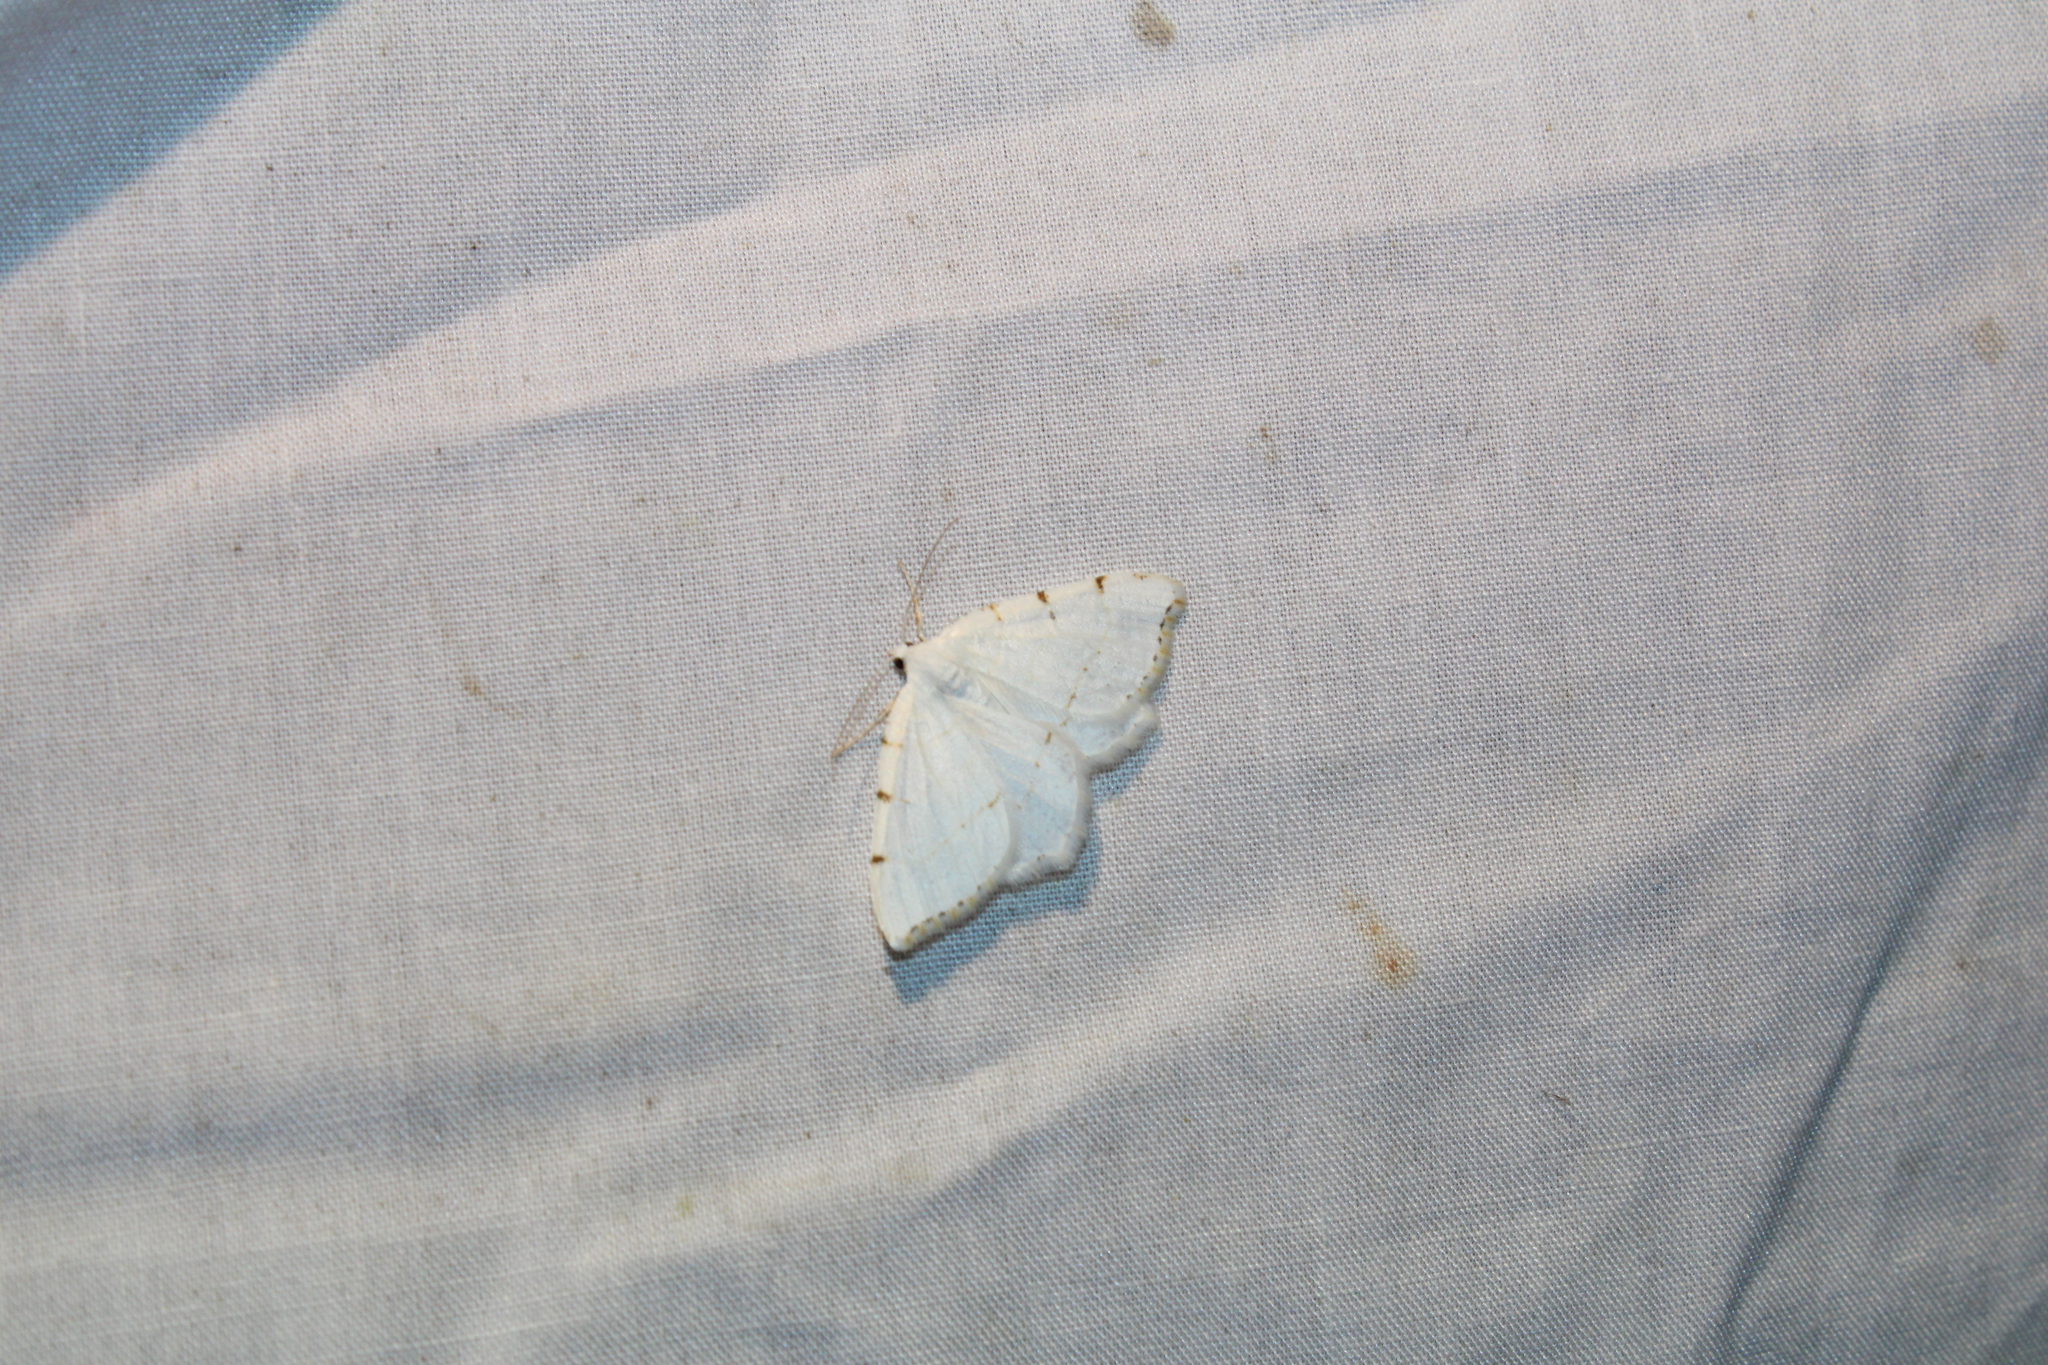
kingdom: Animalia
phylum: Arthropoda
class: Insecta
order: Lepidoptera
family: Geometridae
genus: Macaria
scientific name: Macaria pustularia
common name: Lesser maple spanworm moth
